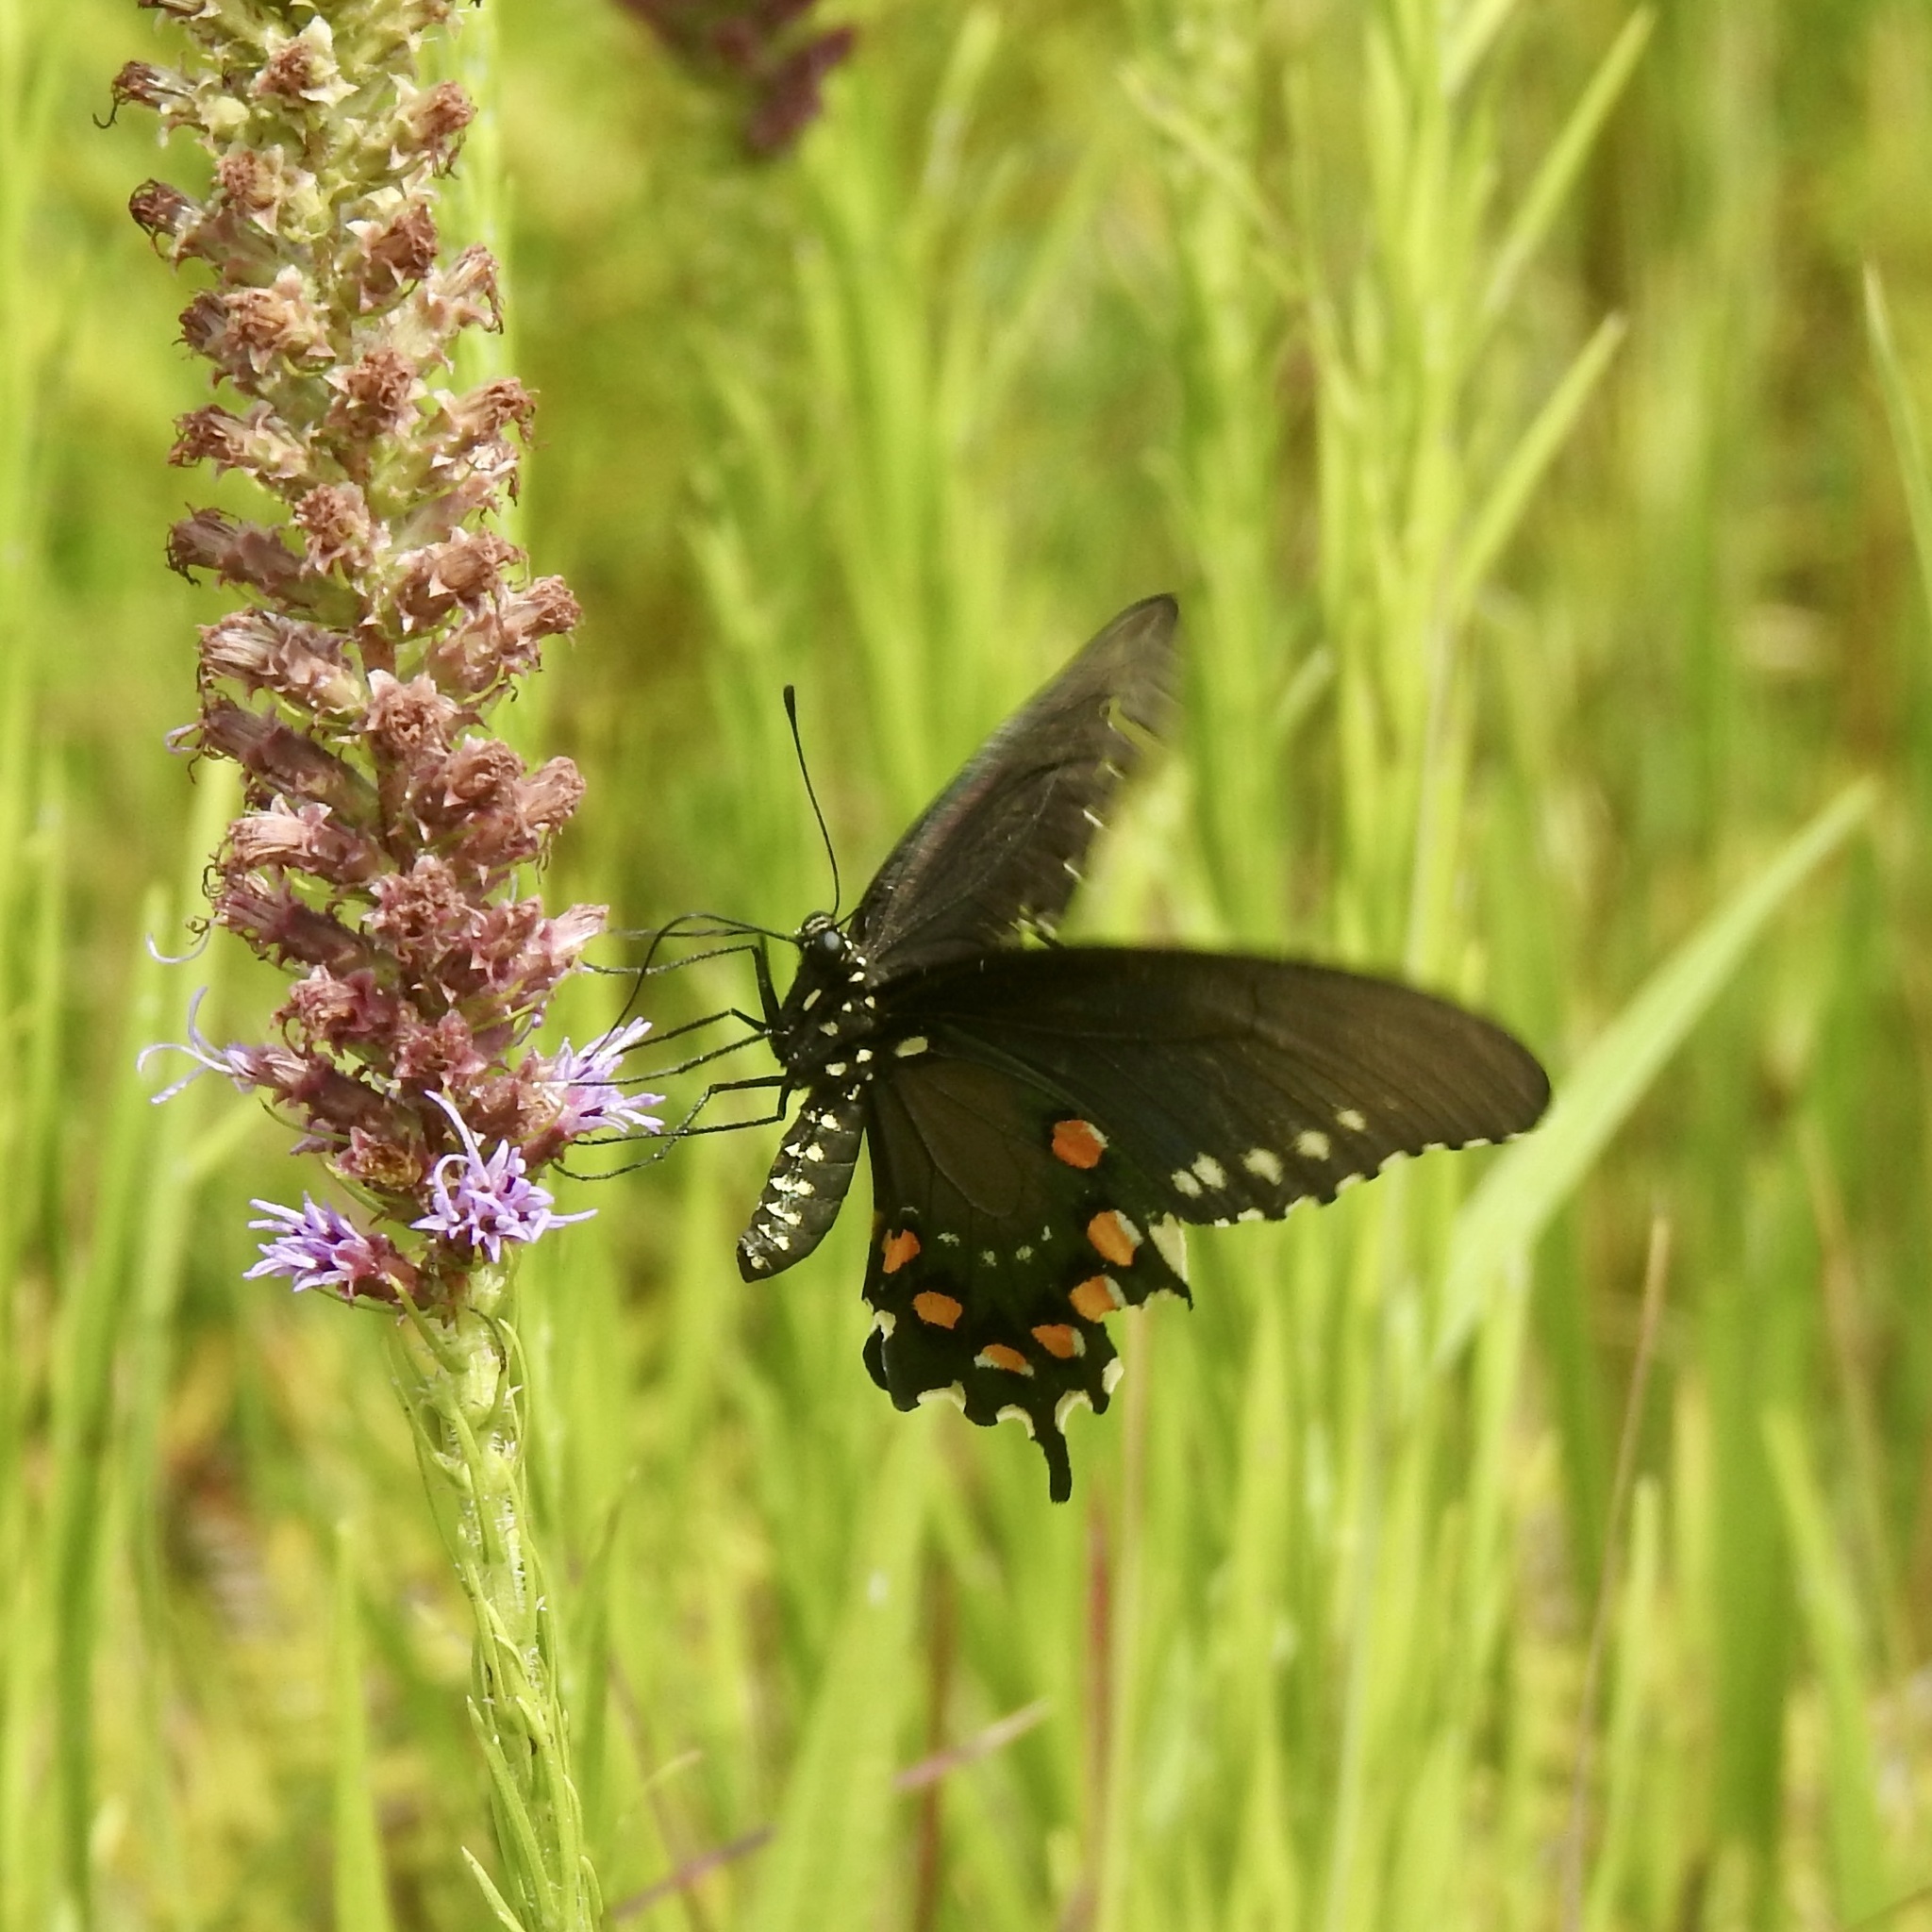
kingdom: Animalia
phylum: Arthropoda
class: Insecta
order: Lepidoptera
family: Papilionidae
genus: Battus
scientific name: Battus philenor
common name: Pipevine swallowtail
